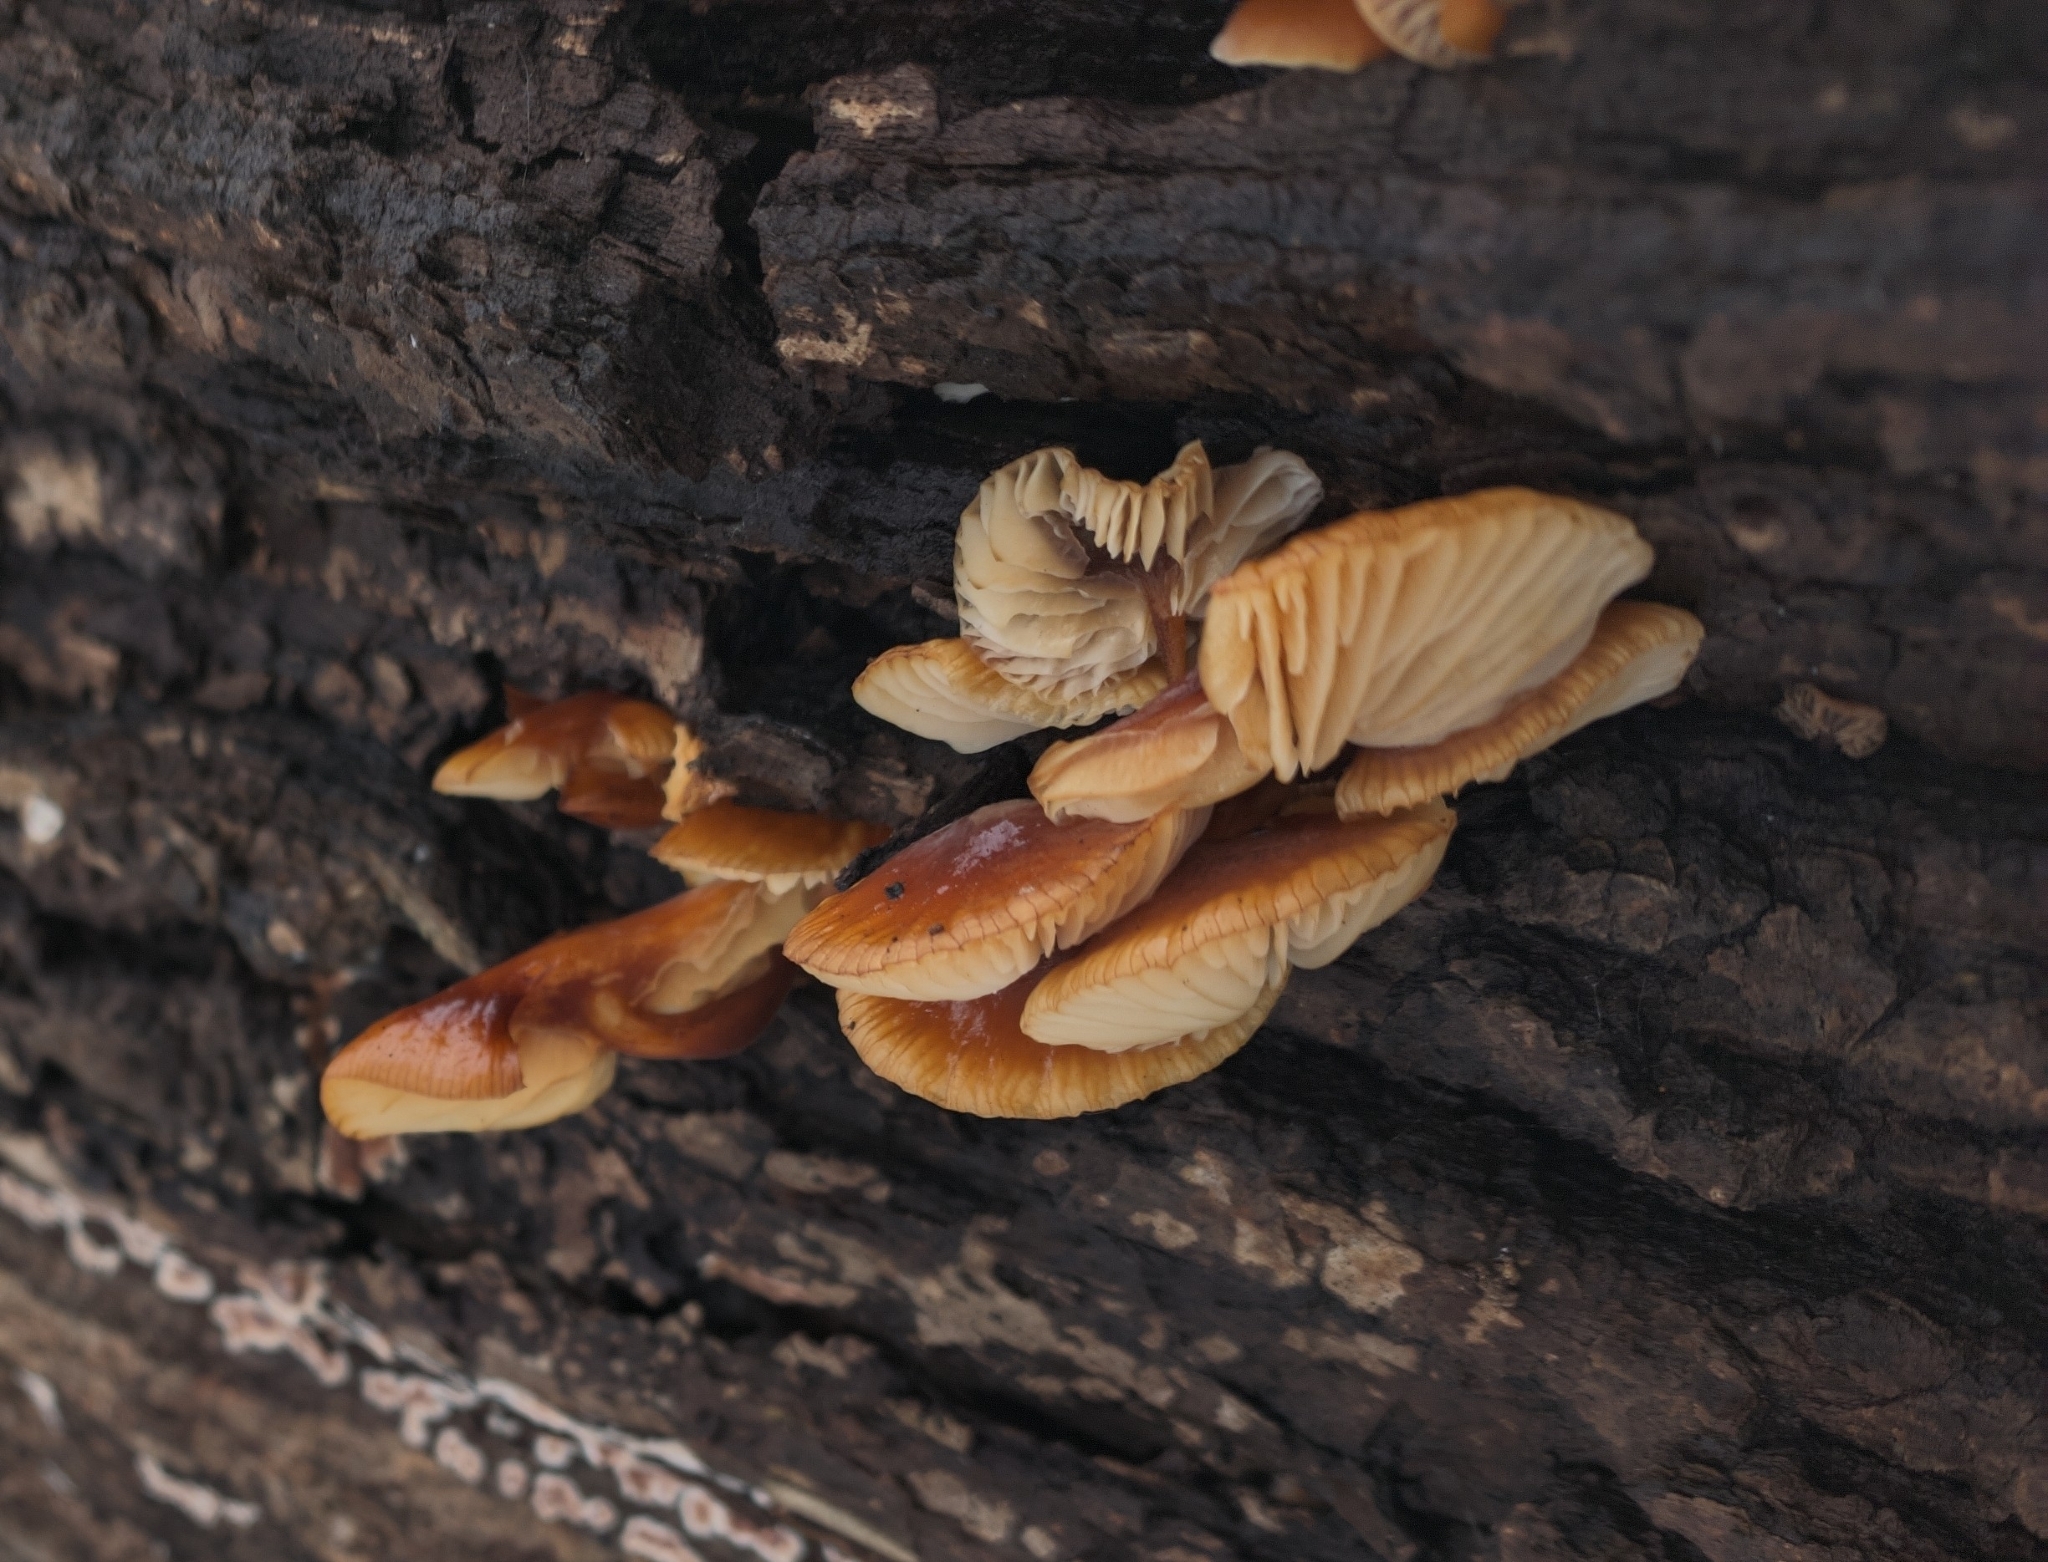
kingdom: Fungi
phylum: Basidiomycota
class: Agaricomycetes
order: Agaricales
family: Physalacriaceae
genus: Flammulina
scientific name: Flammulina
